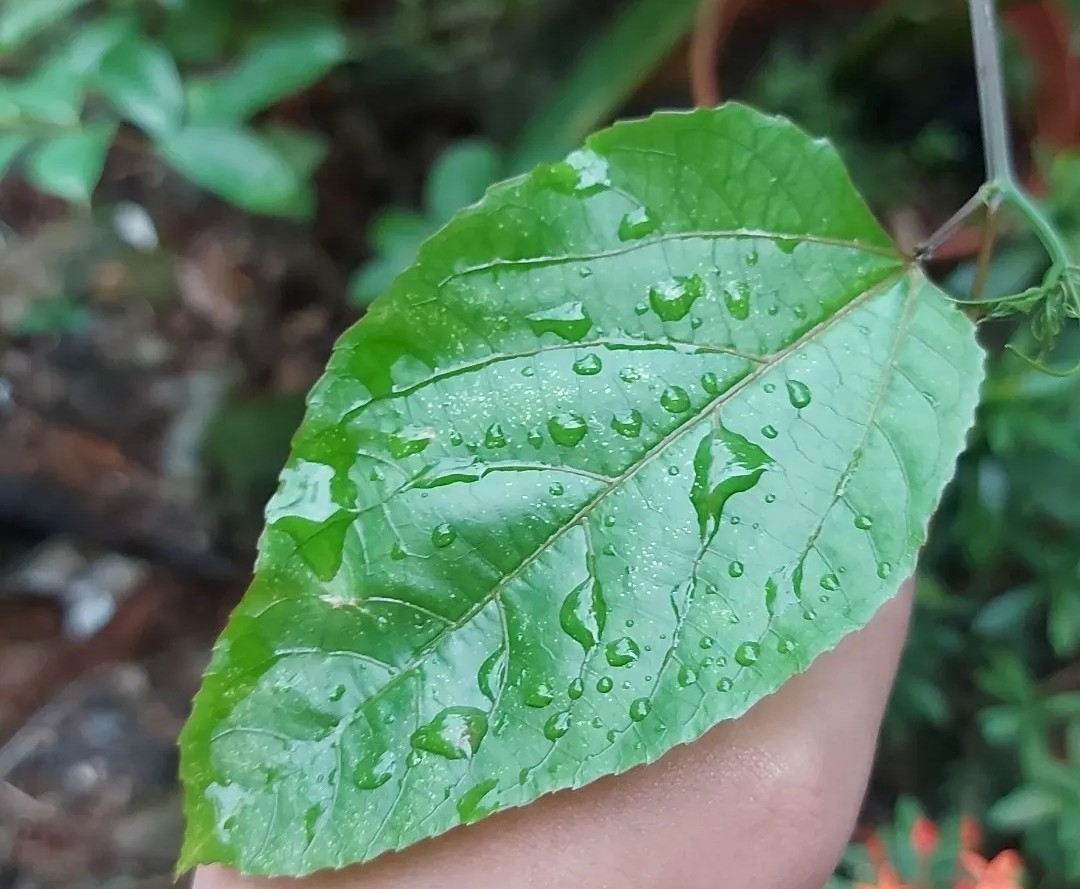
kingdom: Plantae
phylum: Tracheophyta
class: Magnoliopsida
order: Malpighiales
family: Passifloraceae
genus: Passiflora
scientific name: Passiflora edulis
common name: Purple granadilla
